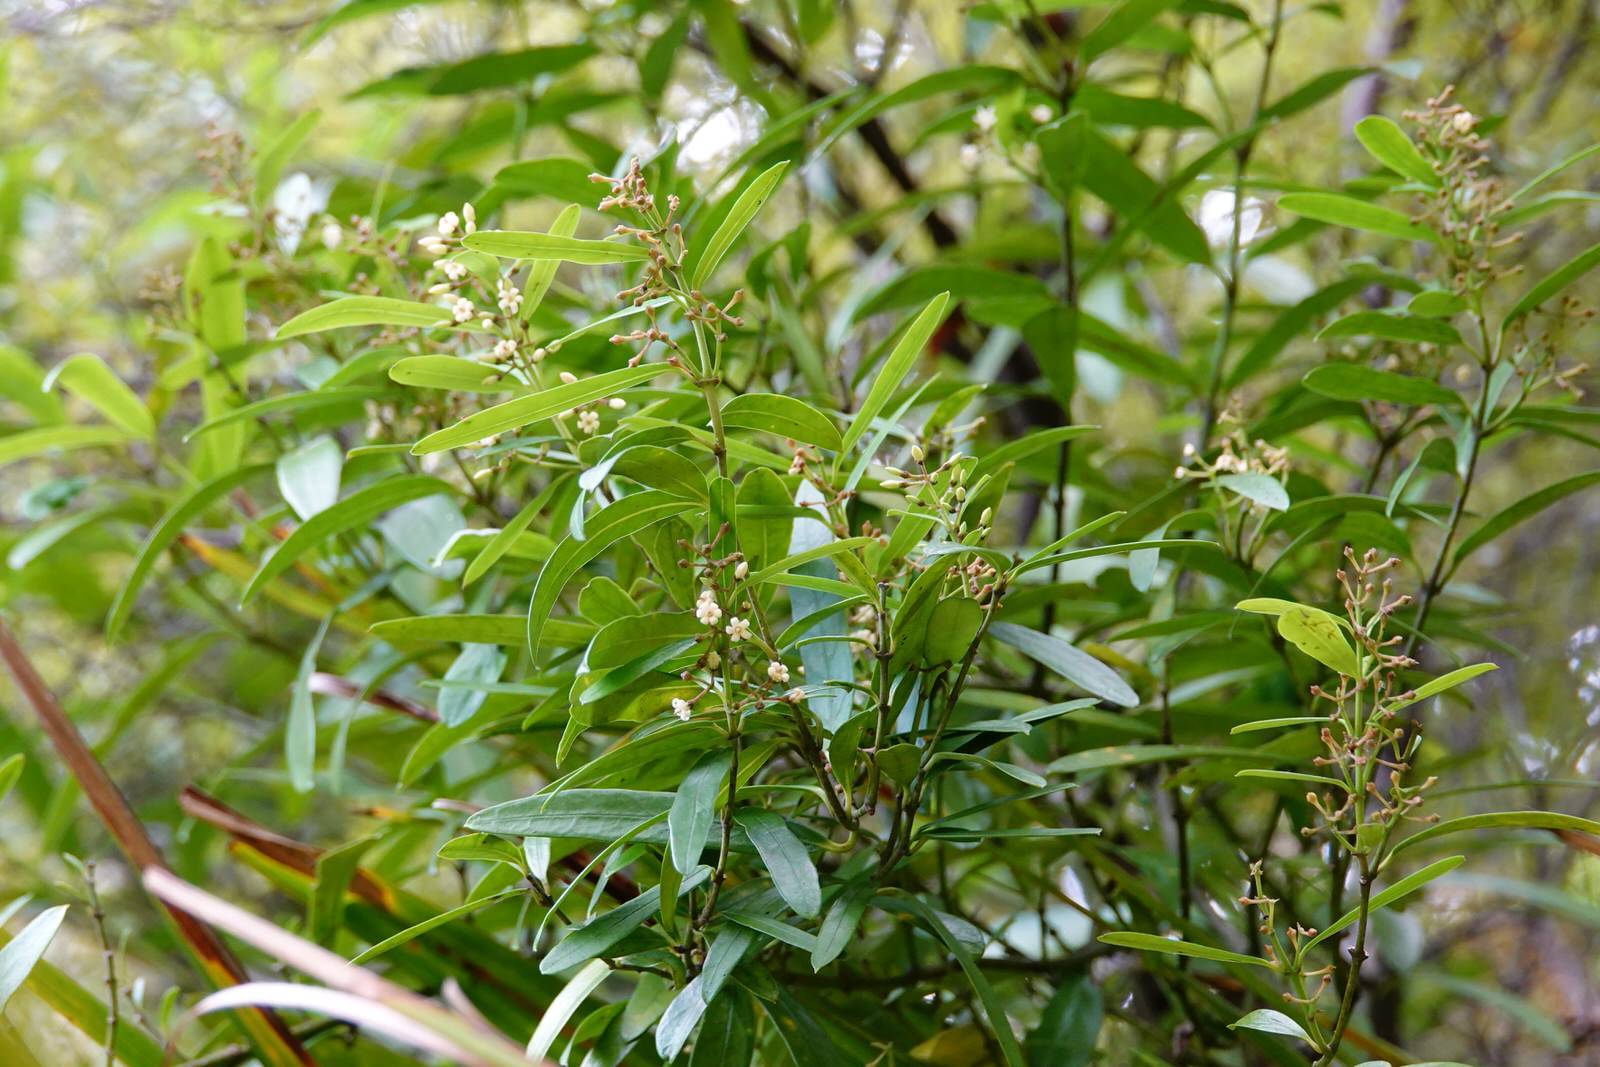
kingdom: Plantae
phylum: Tracheophyta
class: Magnoliopsida
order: Gentianales
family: Apocynaceae
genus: Parsonsia
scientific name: Parsonsia capsularis
